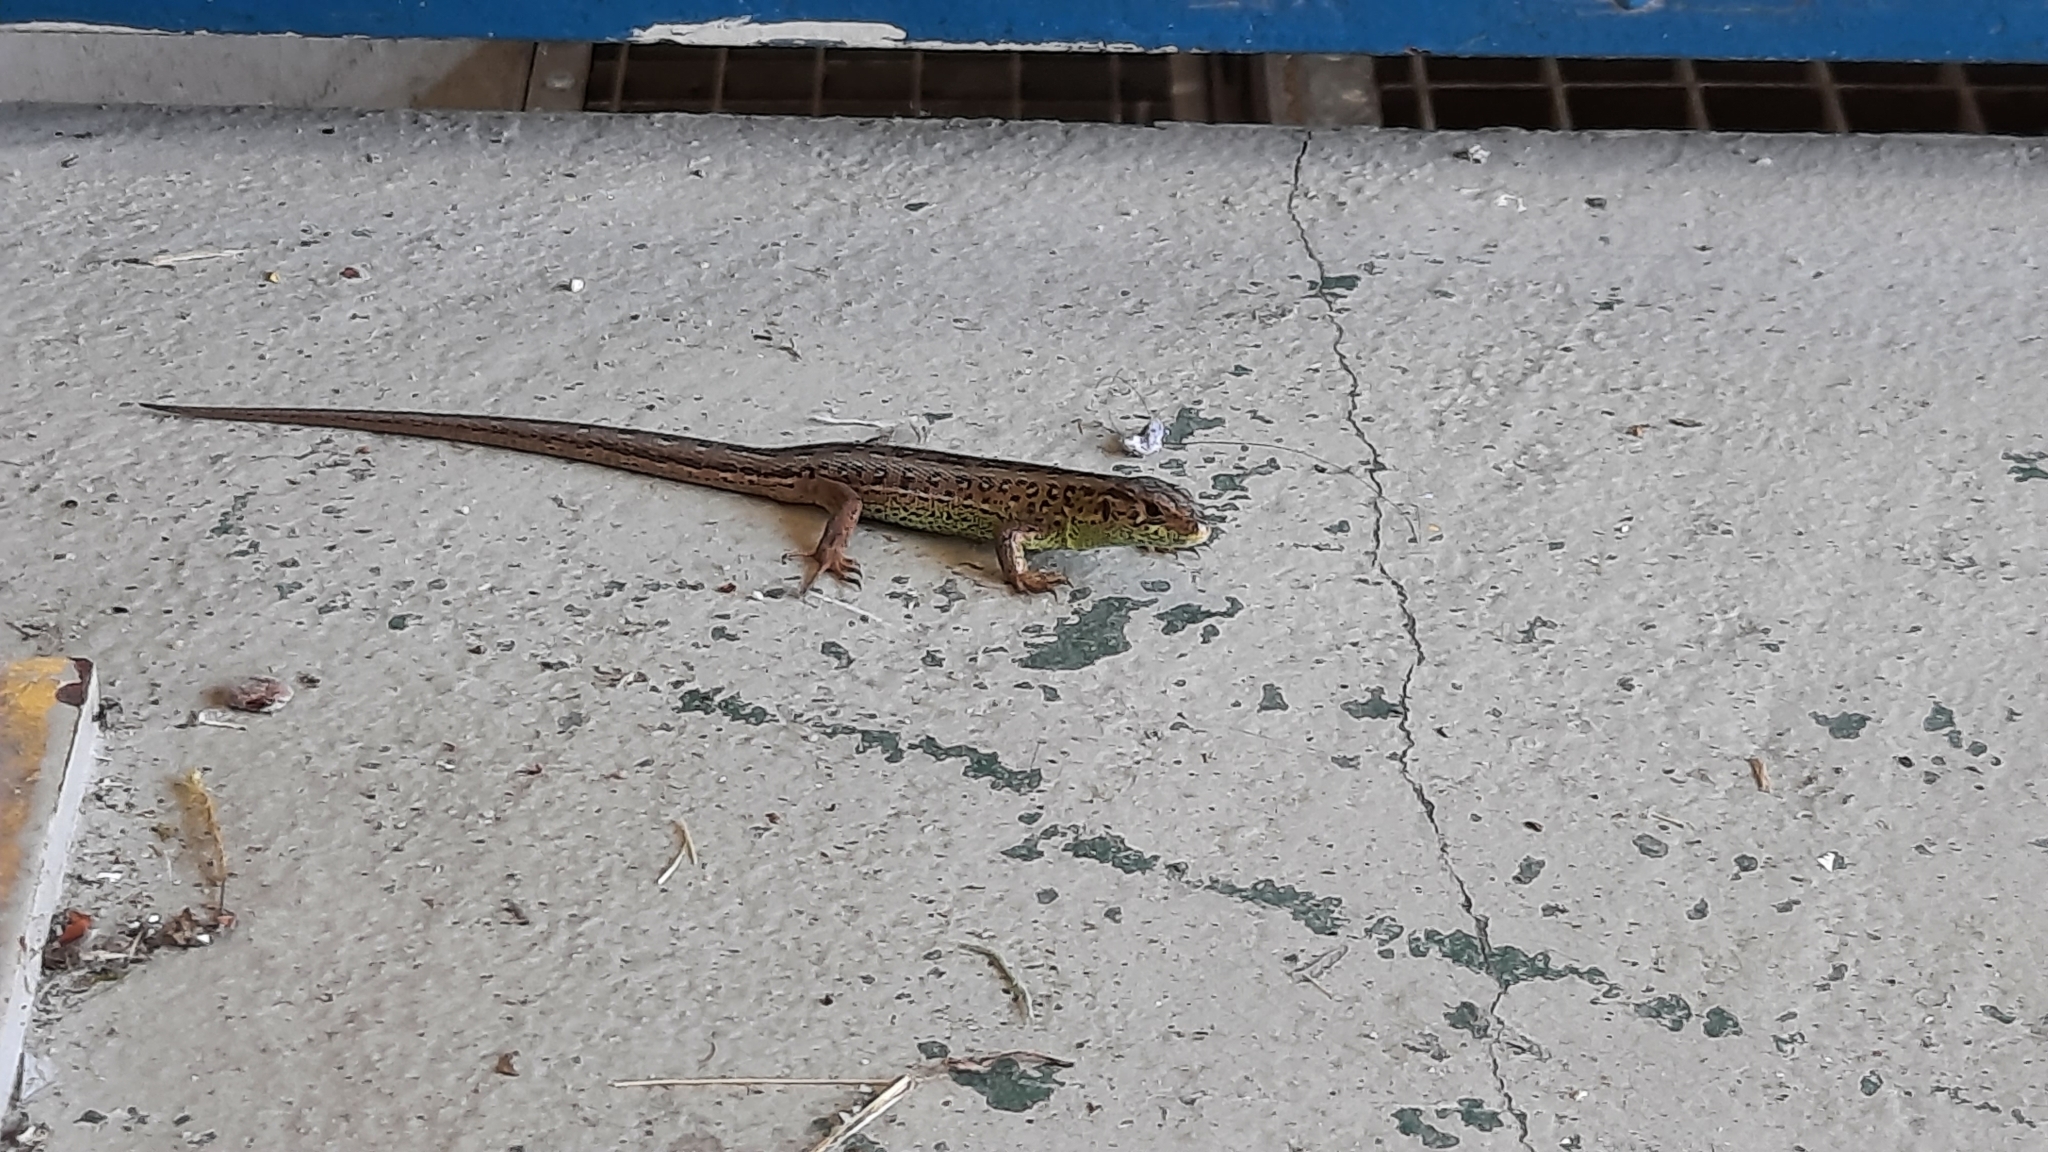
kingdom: Animalia
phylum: Chordata
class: Squamata
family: Lacertidae
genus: Lacerta
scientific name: Lacerta agilis
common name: Sand lizard
